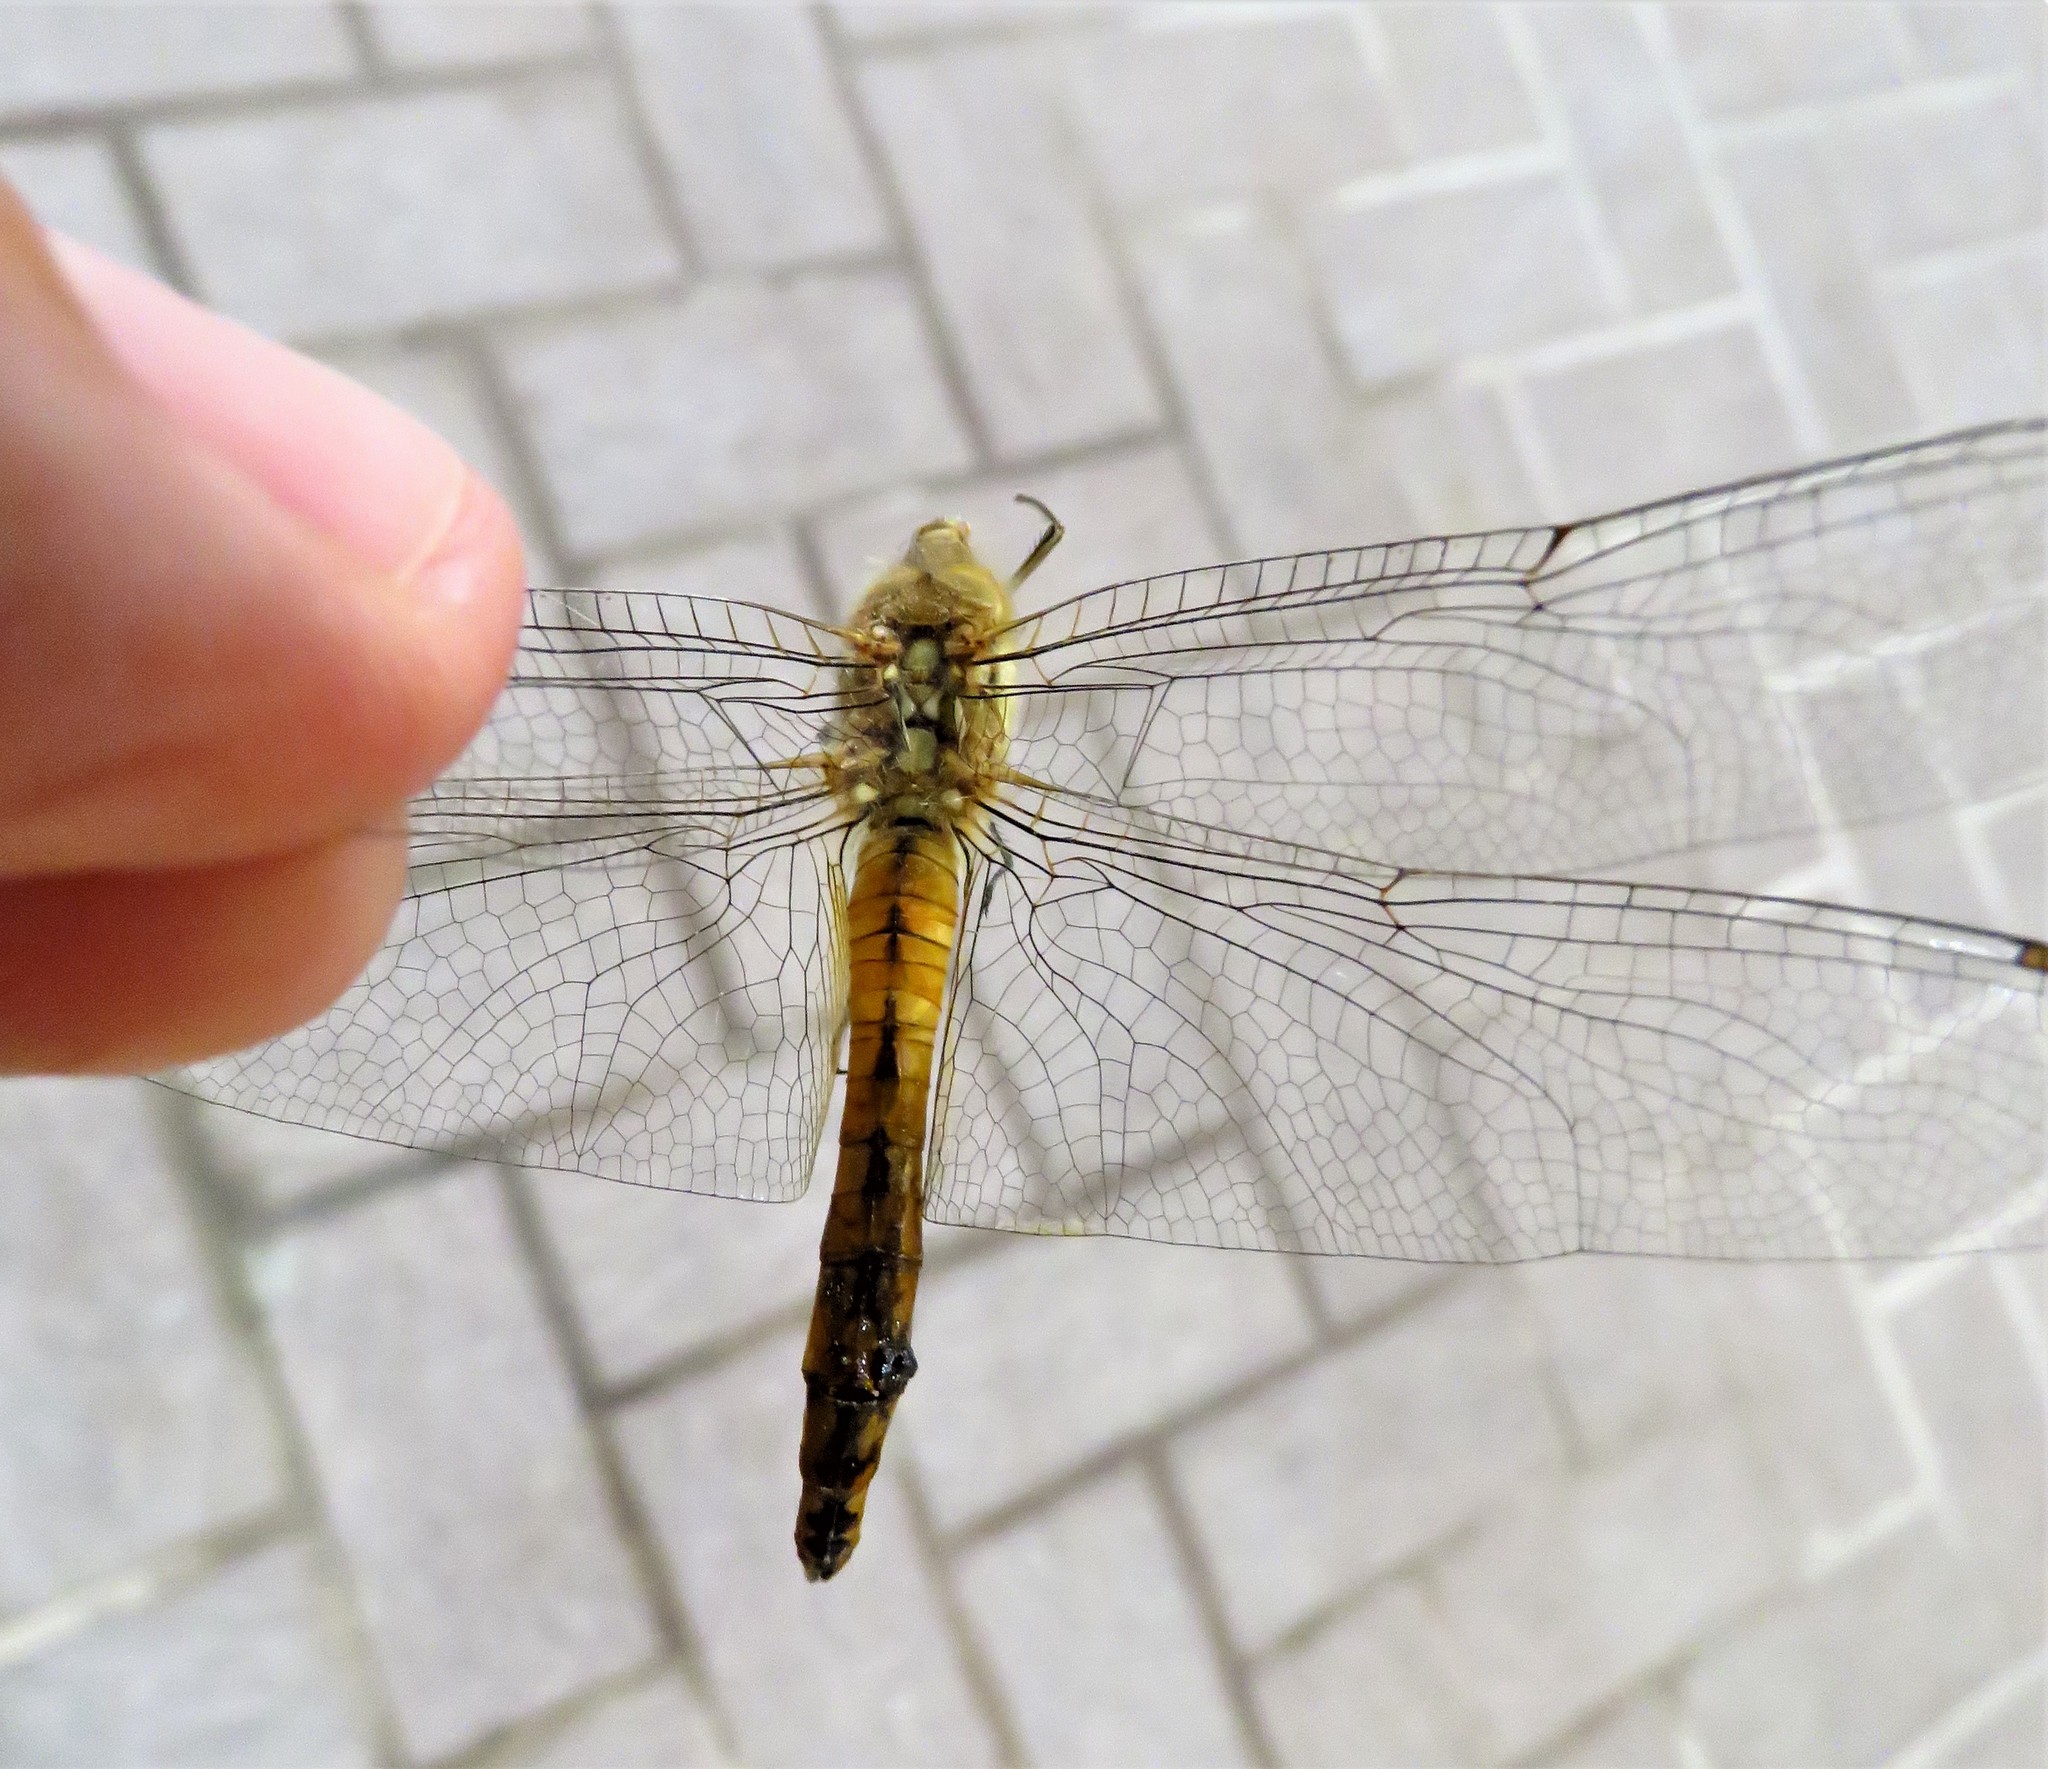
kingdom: Animalia
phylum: Arthropoda
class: Insecta
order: Odonata
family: Libellulidae
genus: Pantala
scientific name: Pantala flavescens
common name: Wandering glider
